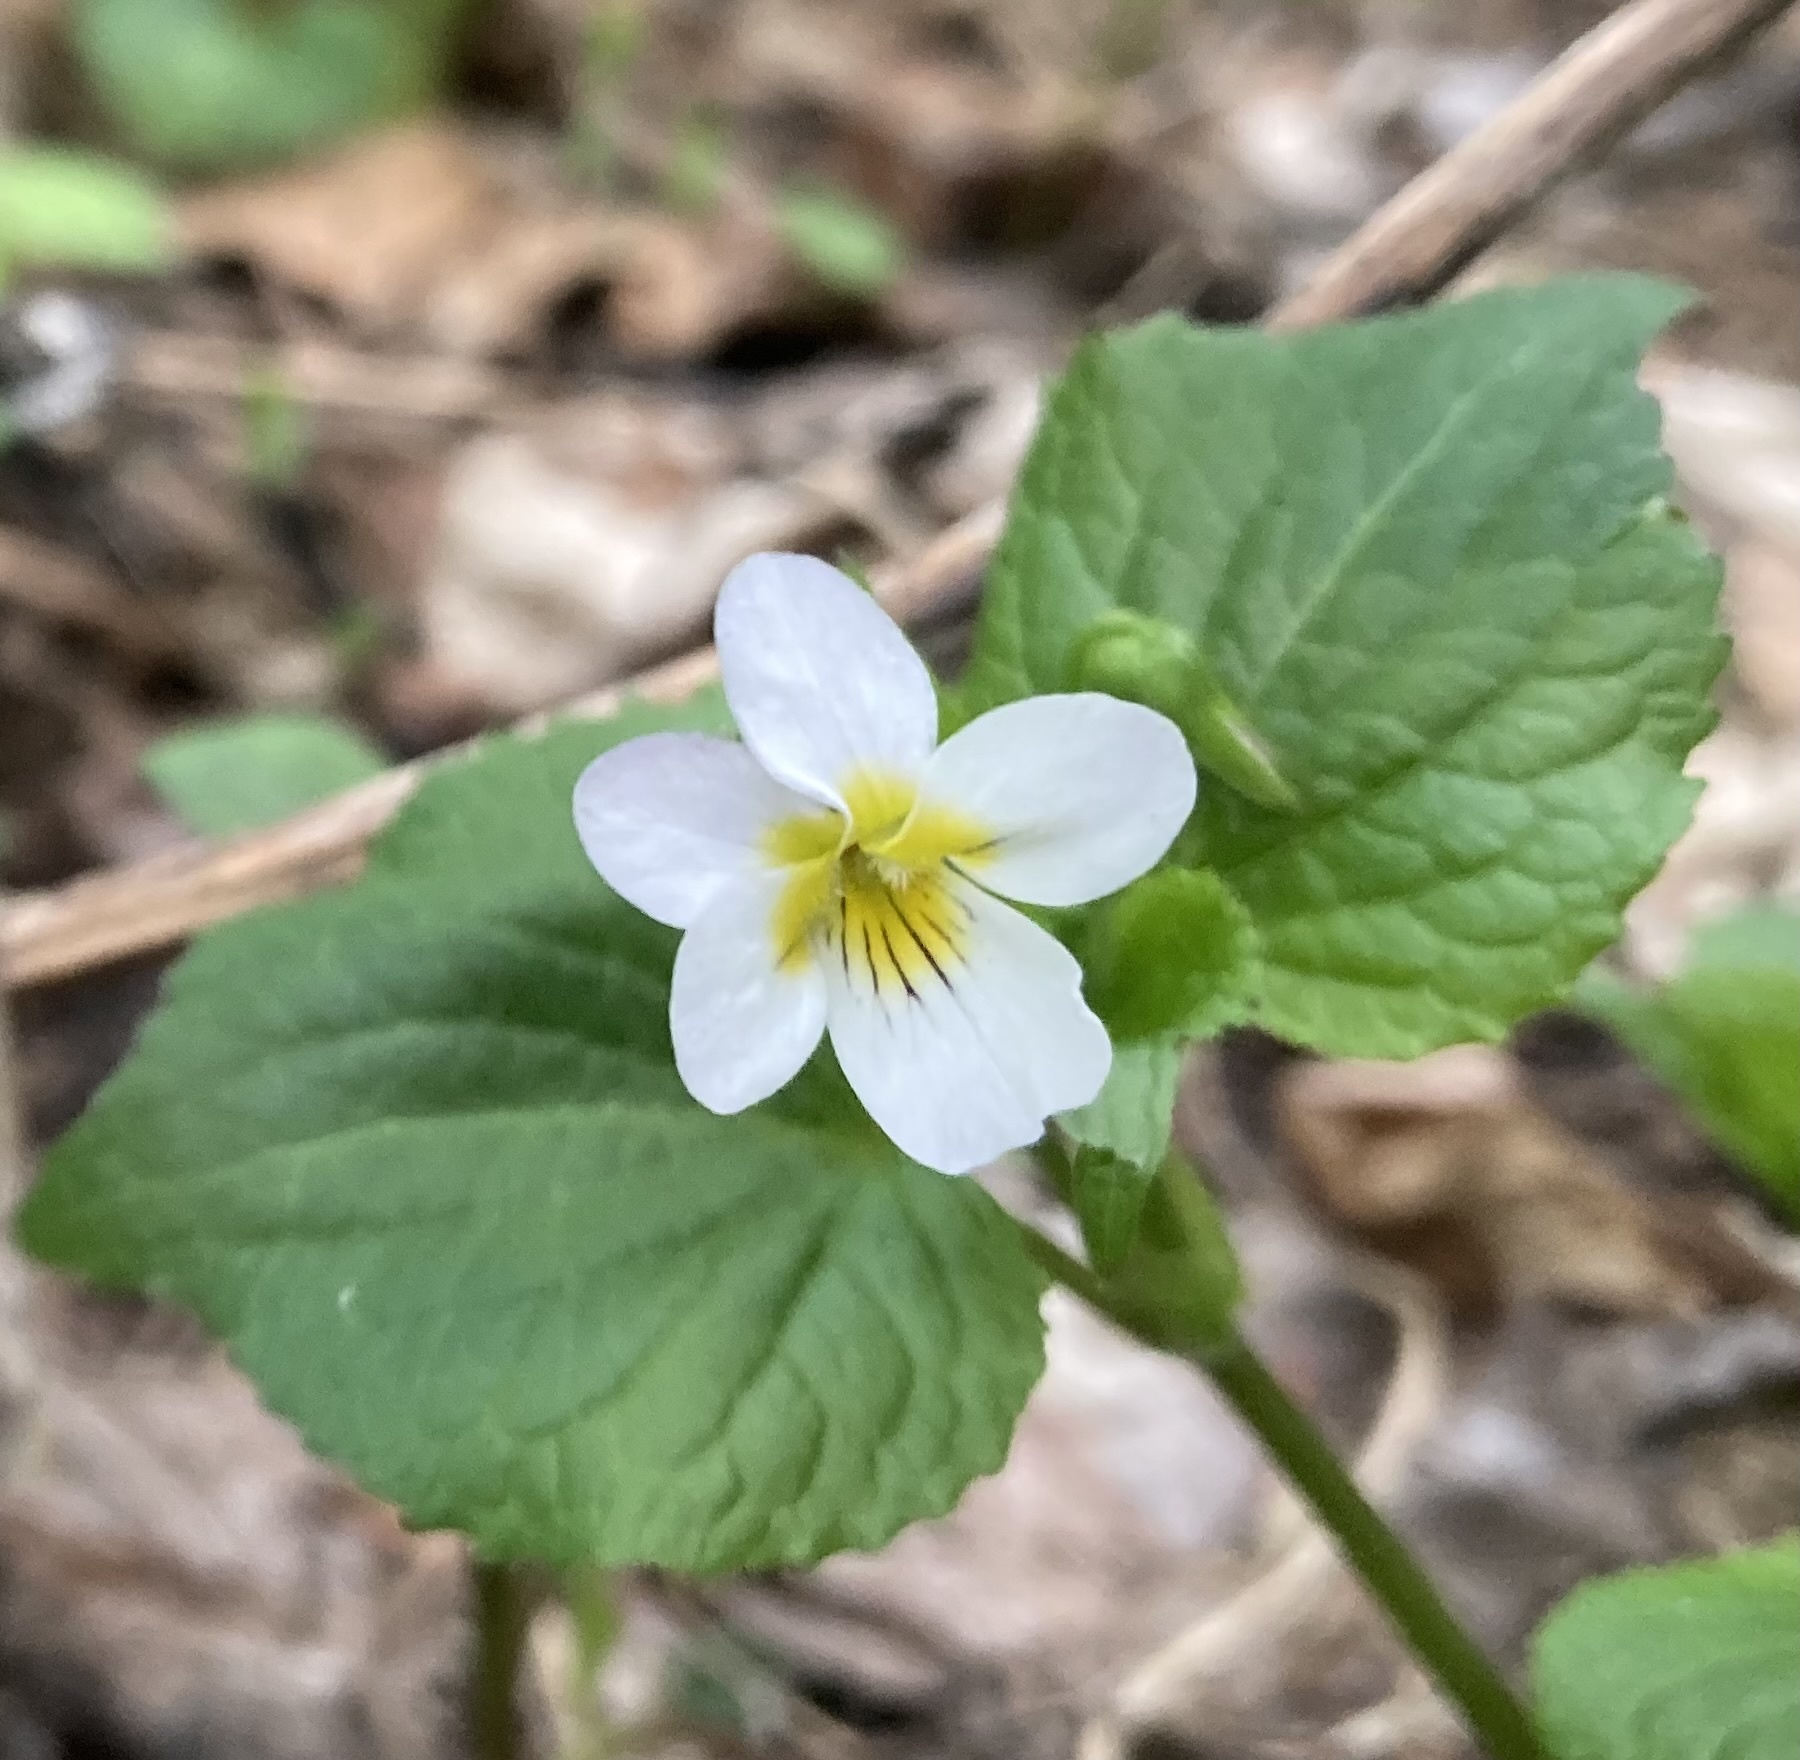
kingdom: Plantae
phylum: Tracheophyta
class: Magnoliopsida
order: Malpighiales
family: Violaceae
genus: Viola
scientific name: Viola canadensis
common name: Canada violet
